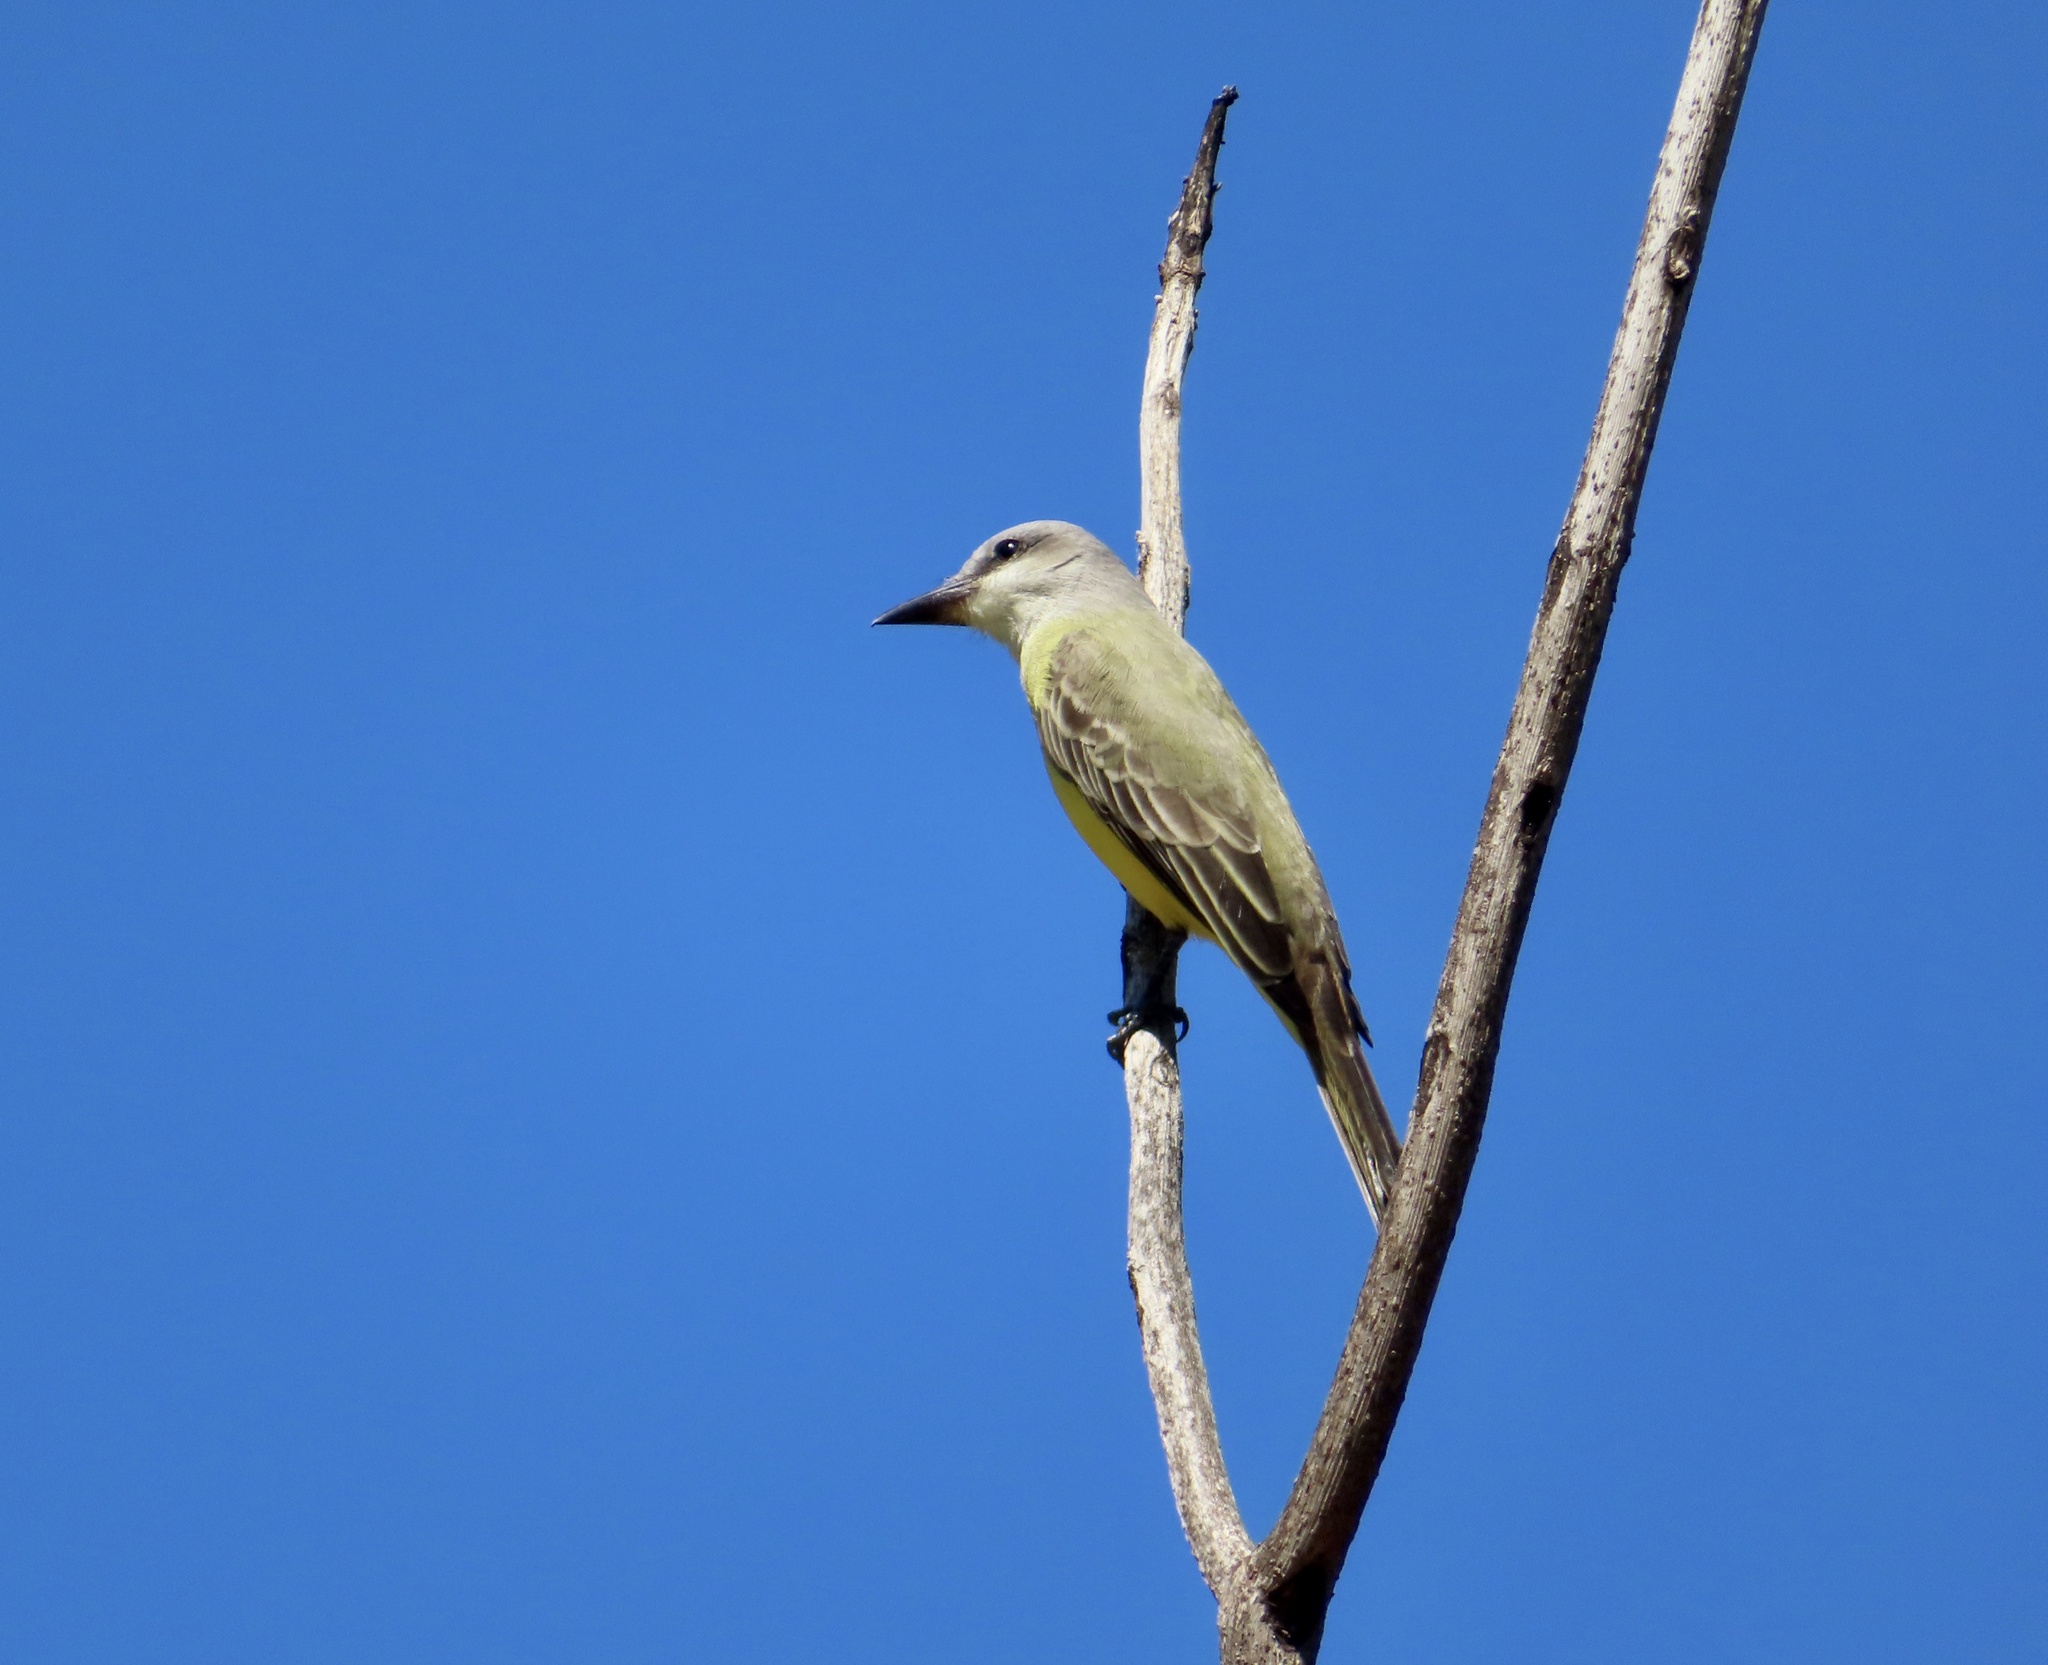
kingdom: Animalia
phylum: Chordata
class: Aves
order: Passeriformes
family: Tyrannidae
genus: Tyrannus
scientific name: Tyrannus melancholicus
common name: Tropical kingbird
